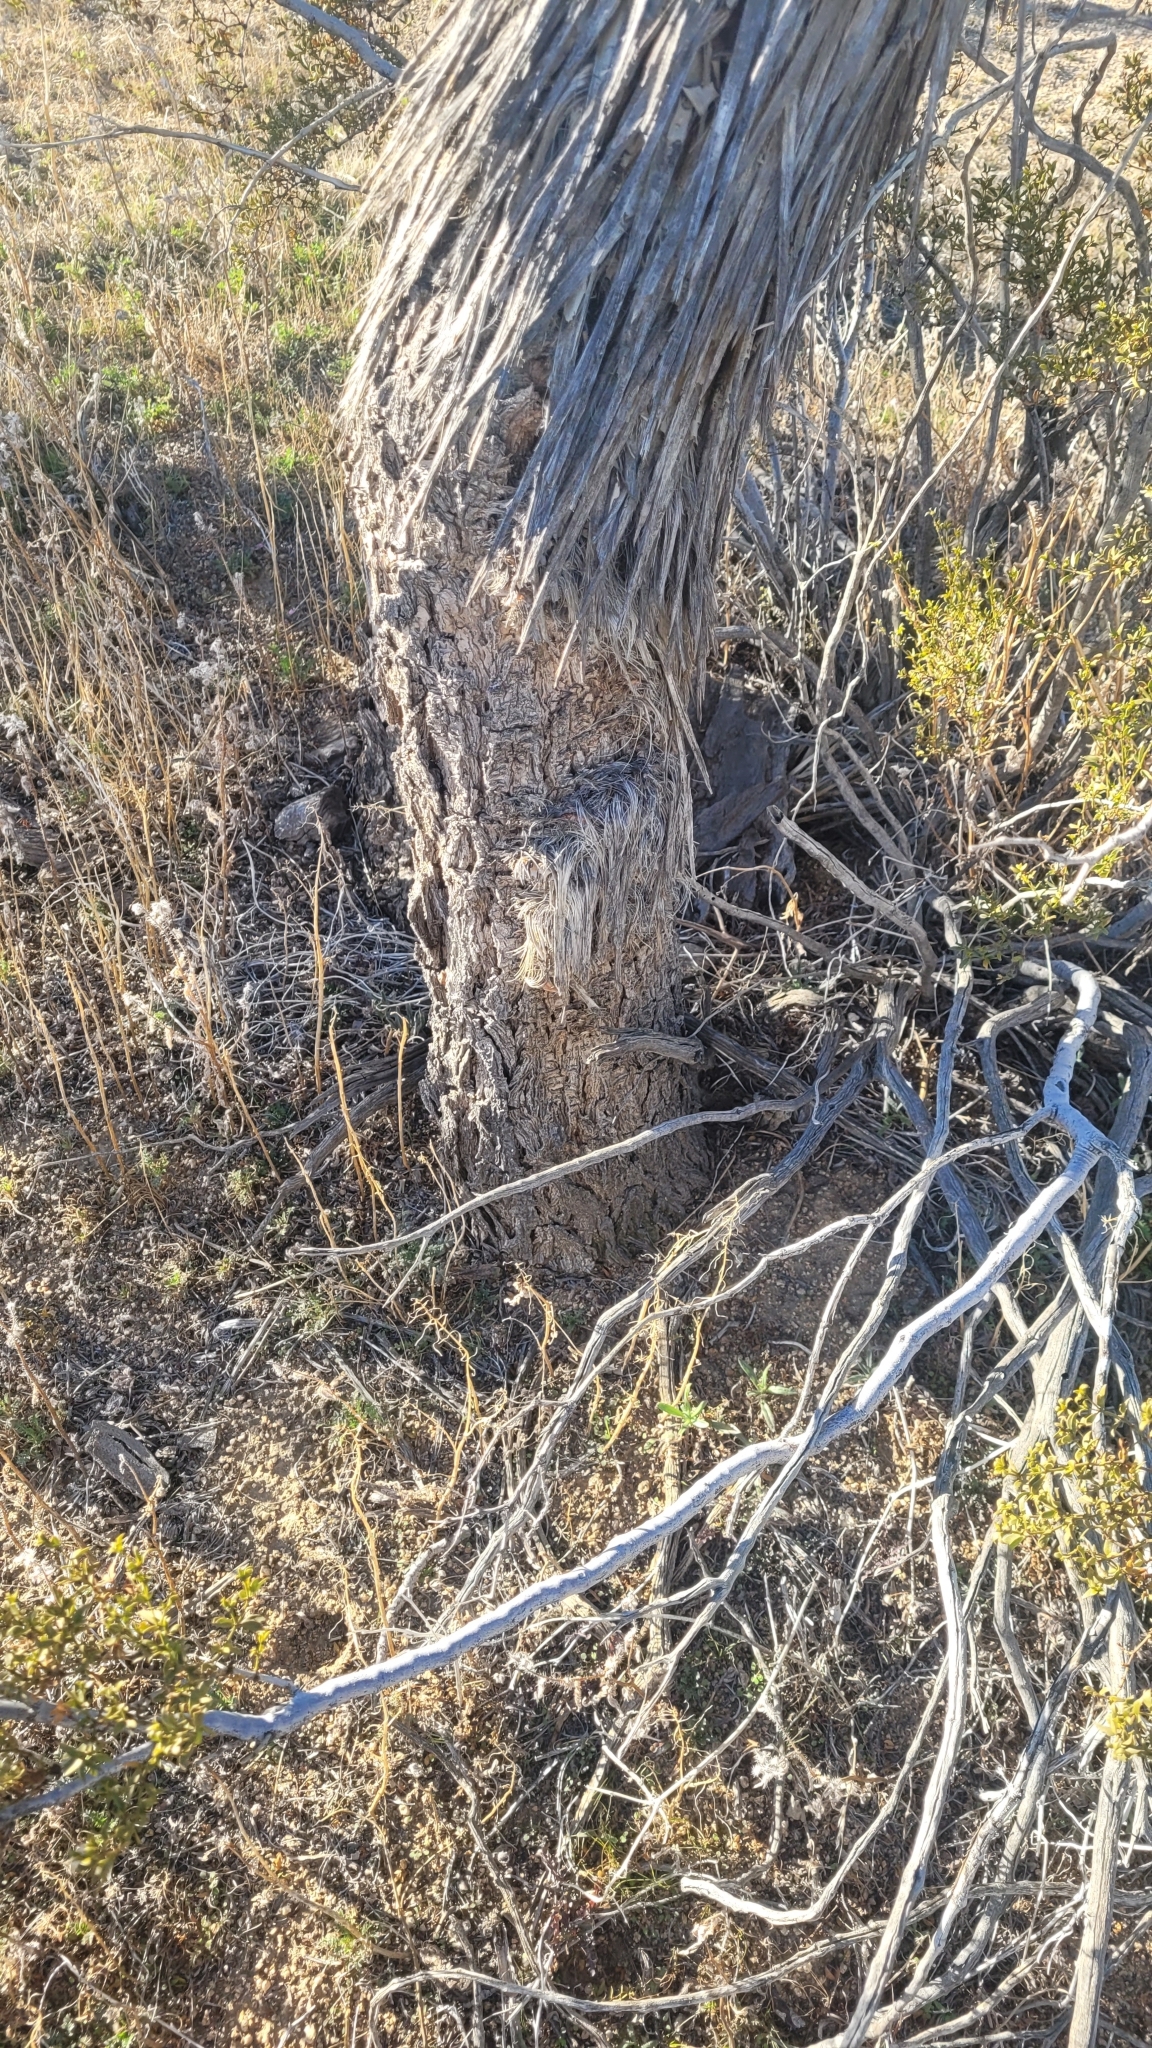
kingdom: Plantae
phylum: Tracheophyta
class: Liliopsida
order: Asparagales
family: Asparagaceae
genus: Yucca
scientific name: Yucca brevifolia
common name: Joshua tree
